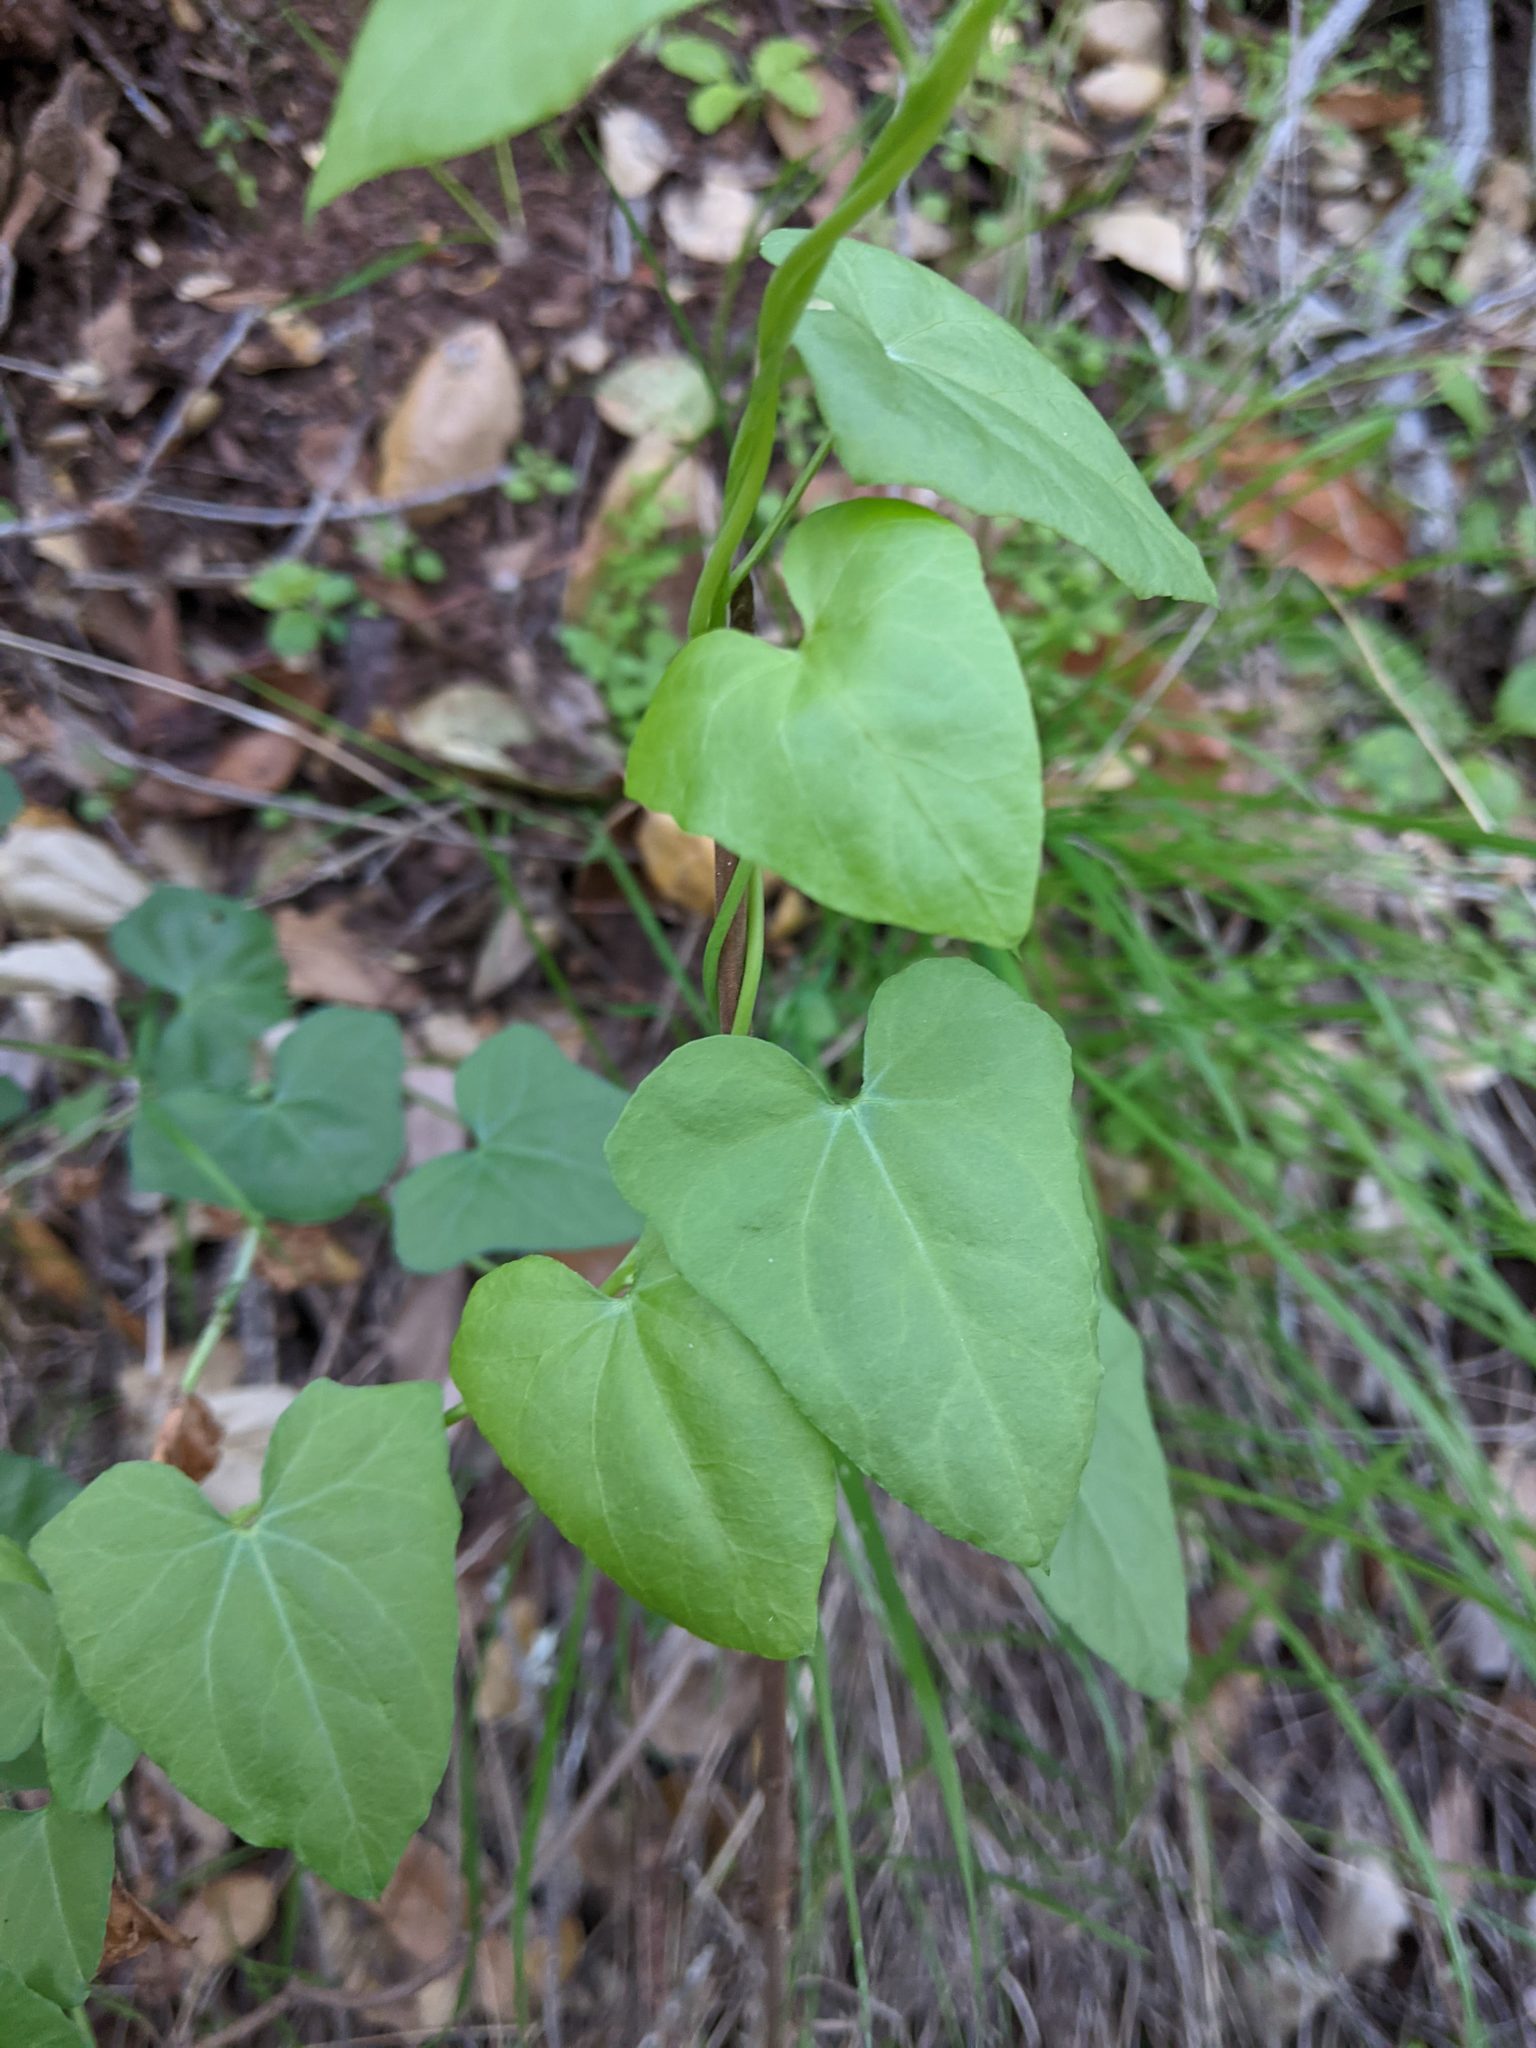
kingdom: Plantae
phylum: Tracheophyta
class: Magnoliopsida
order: Solanales
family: Convolvulaceae
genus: Calystegia
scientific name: Calystegia purpurata
